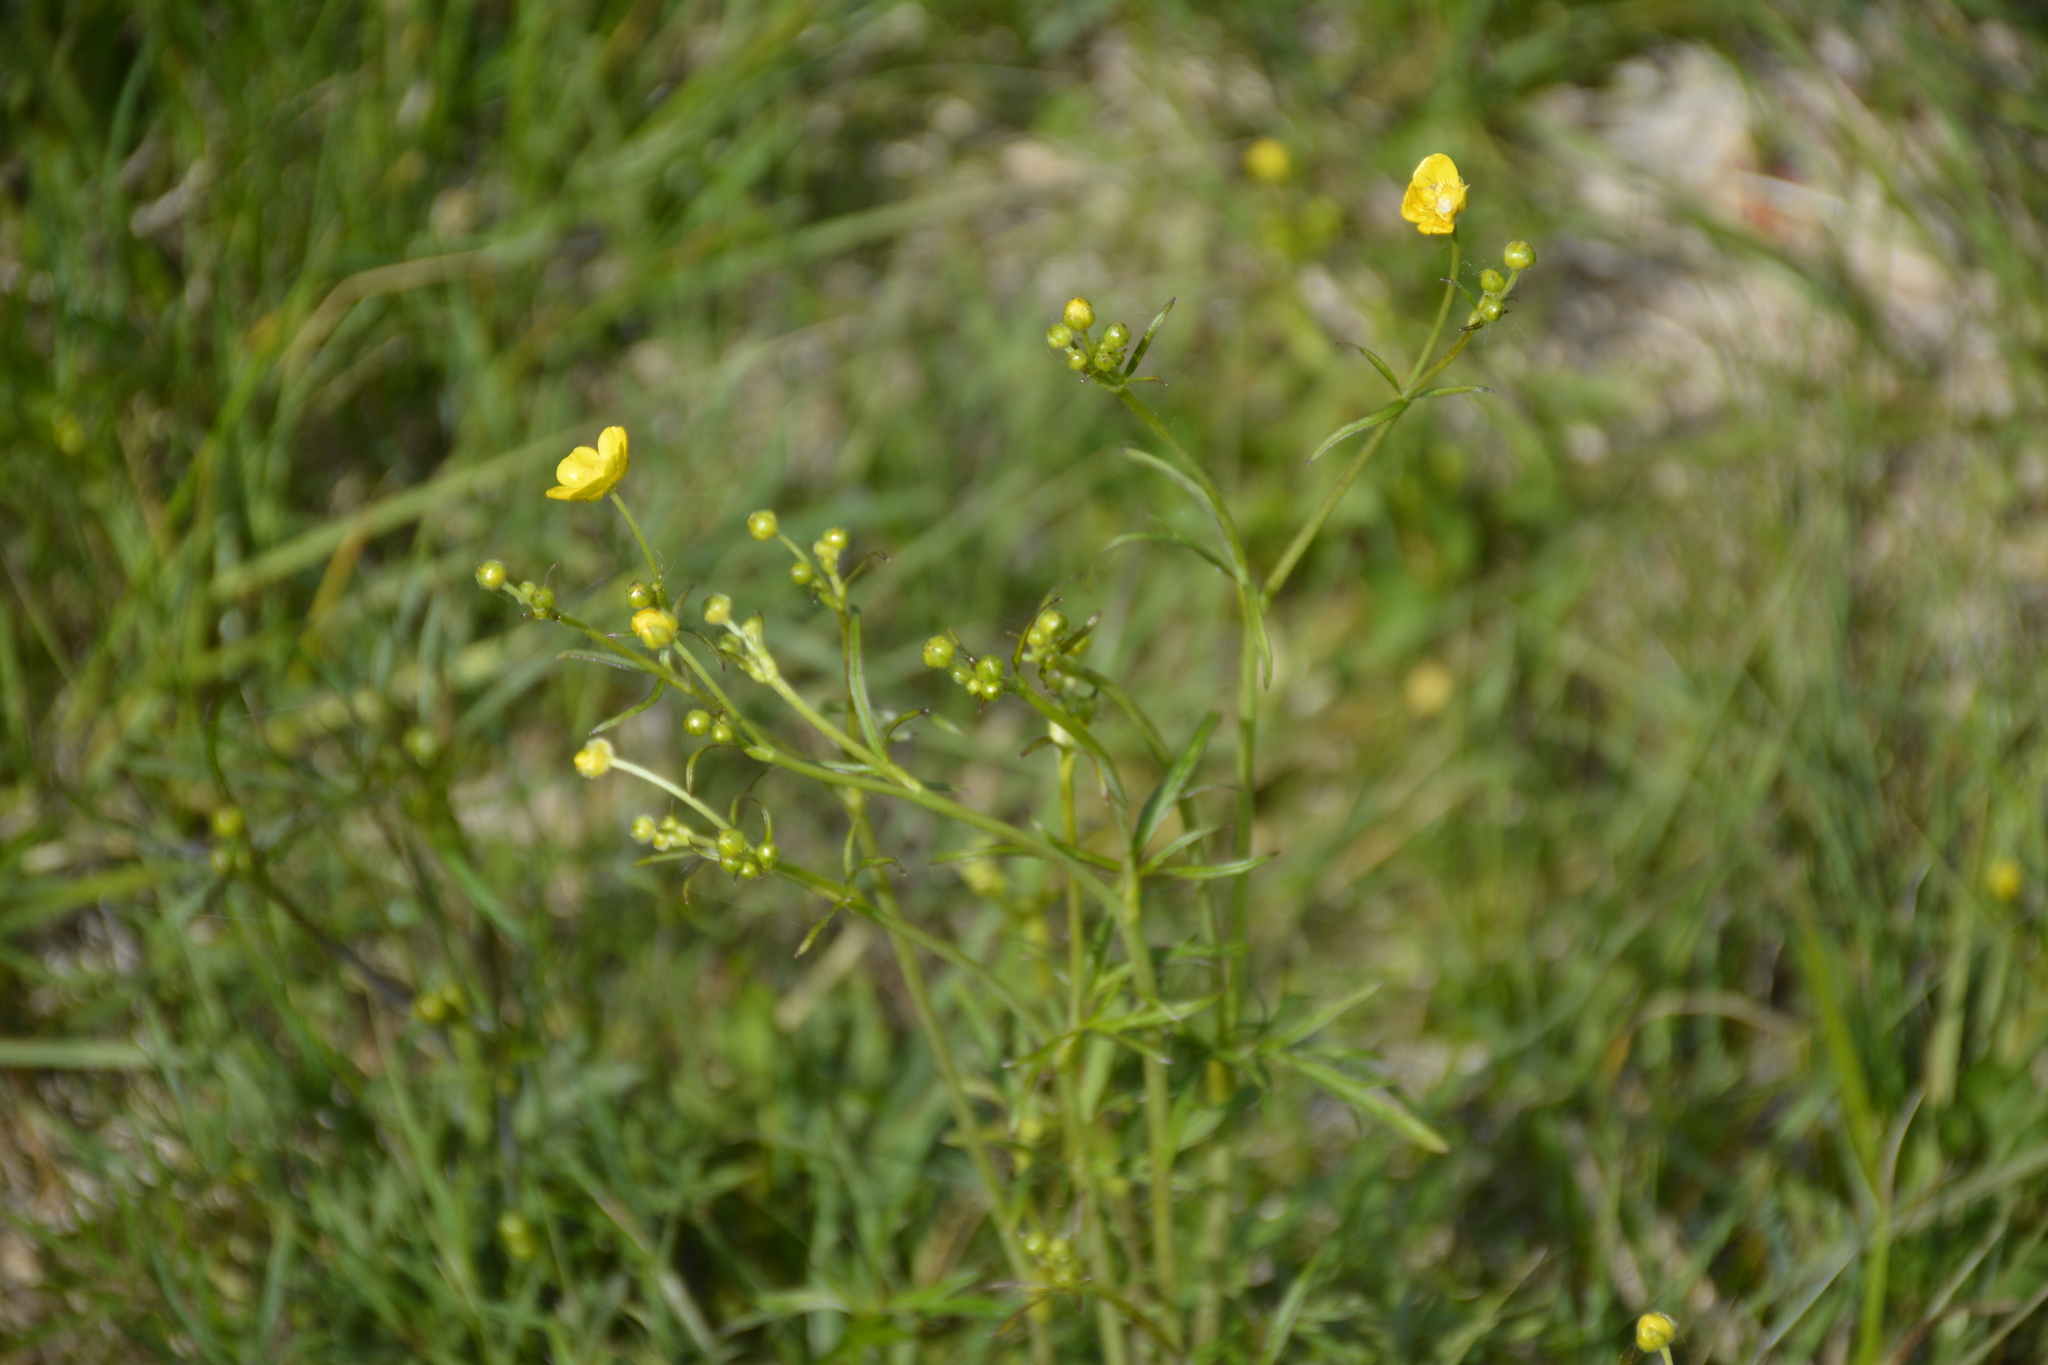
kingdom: Plantae
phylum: Tracheophyta
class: Magnoliopsida
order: Ranunculales
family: Ranunculaceae
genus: Ranunculus
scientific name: Ranunculus acris
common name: Meadow buttercup
